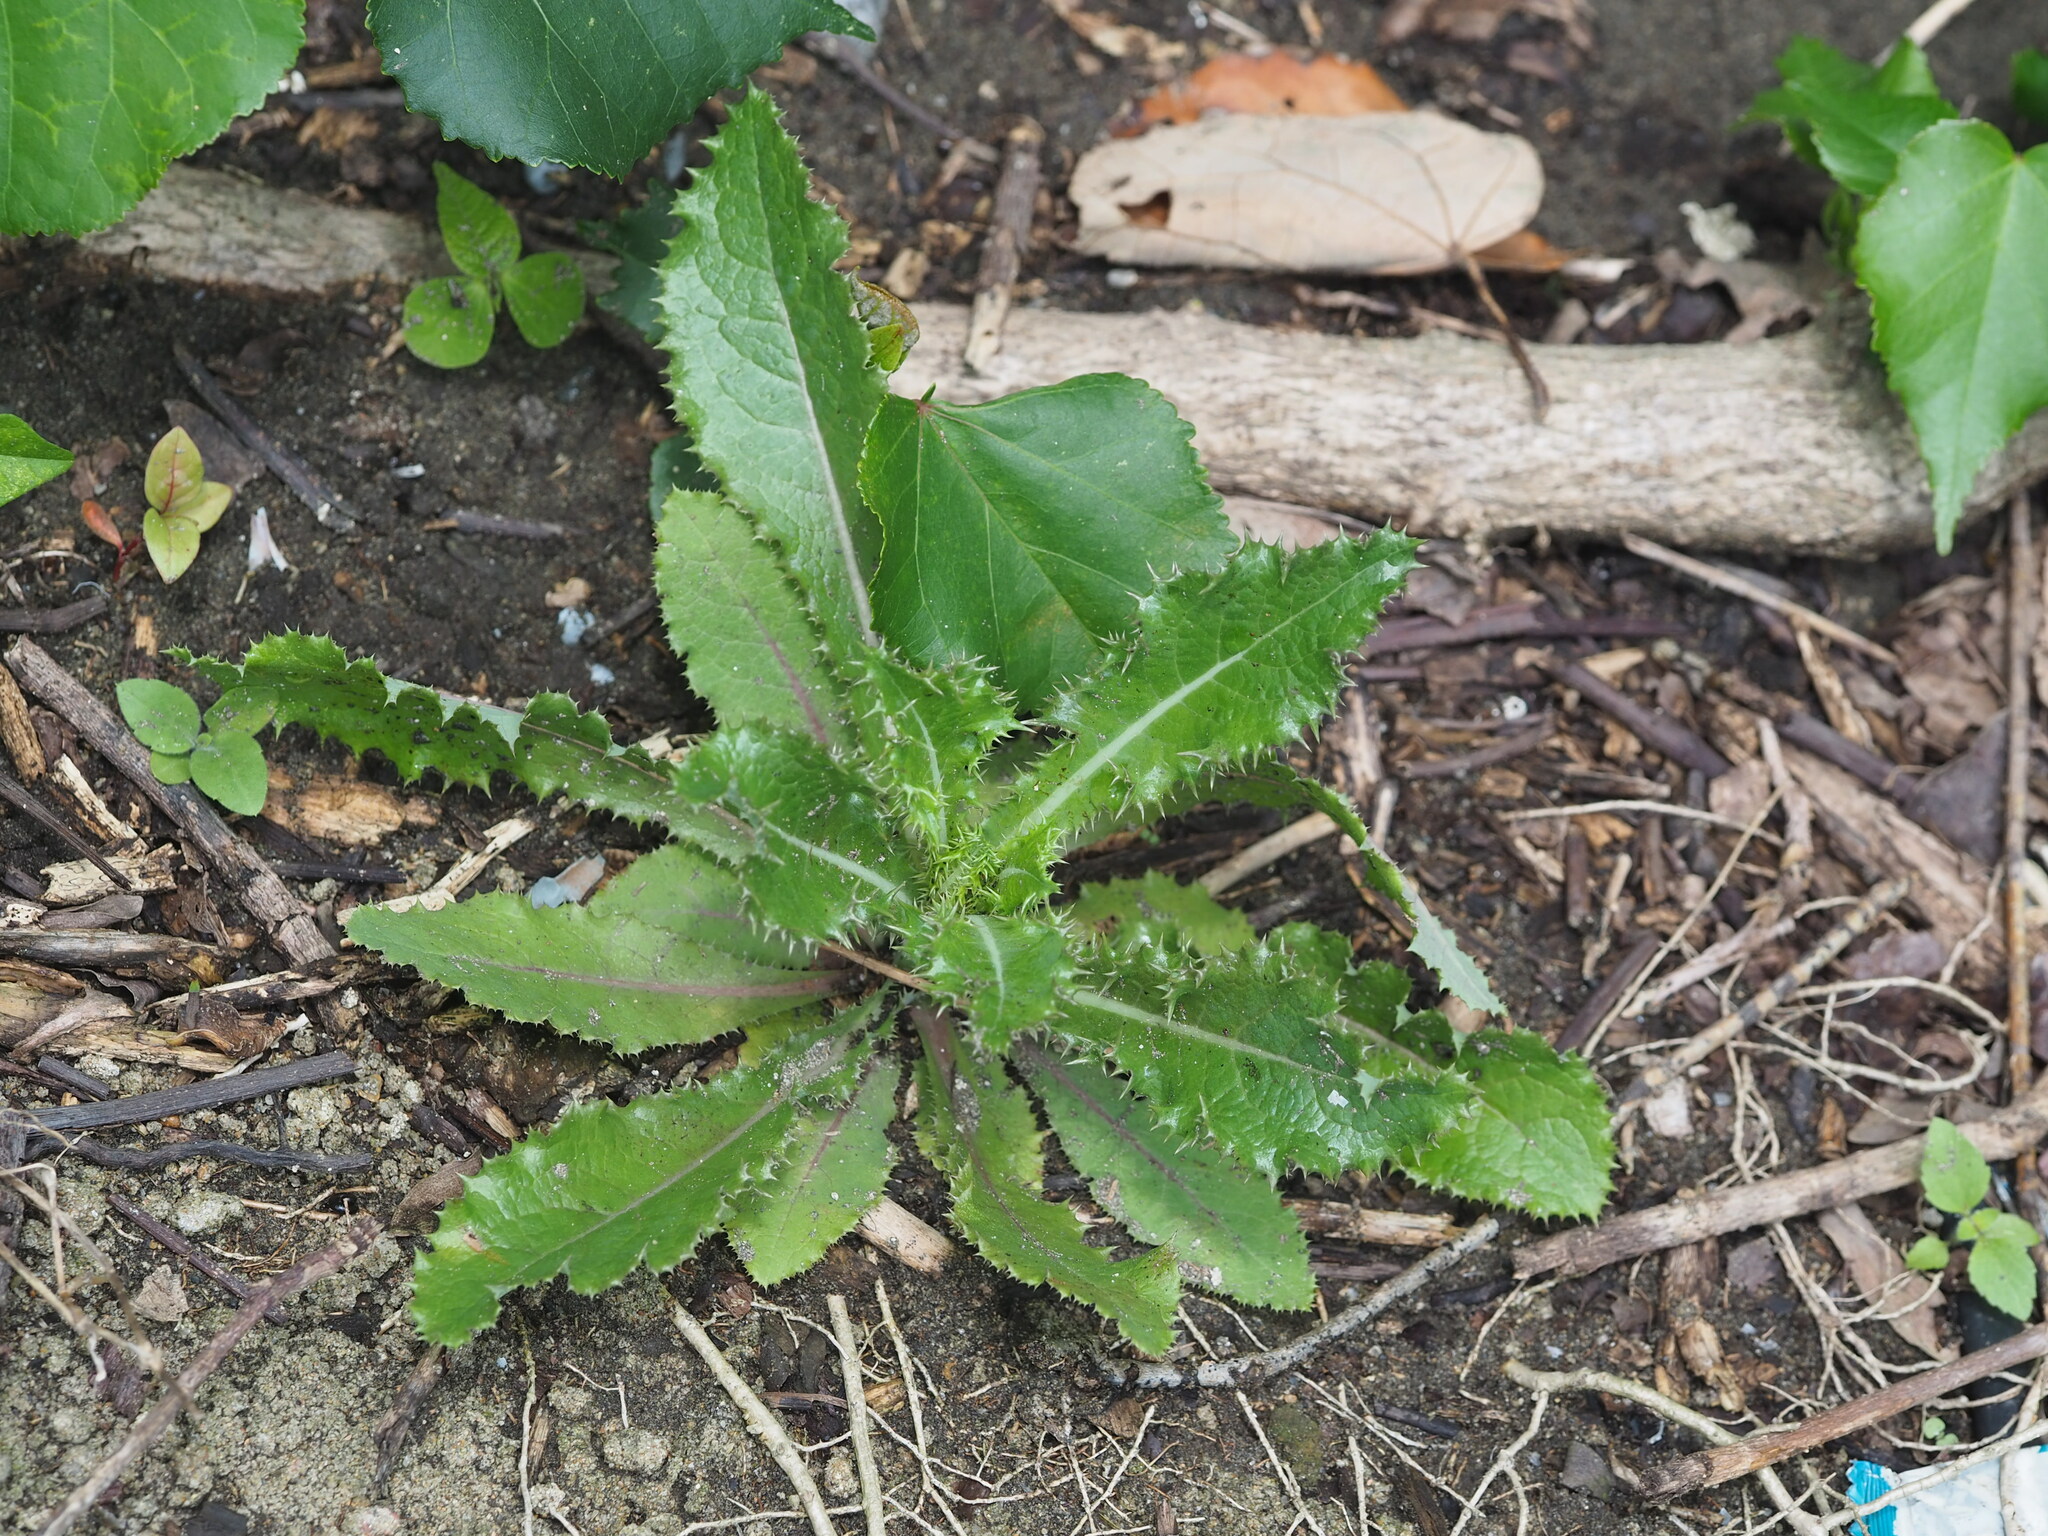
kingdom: Plantae
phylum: Tracheophyta
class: Magnoliopsida
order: Asterales
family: Asteraceae
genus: Sonchus
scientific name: Sonchus asper
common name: Prickly sow-thistle
